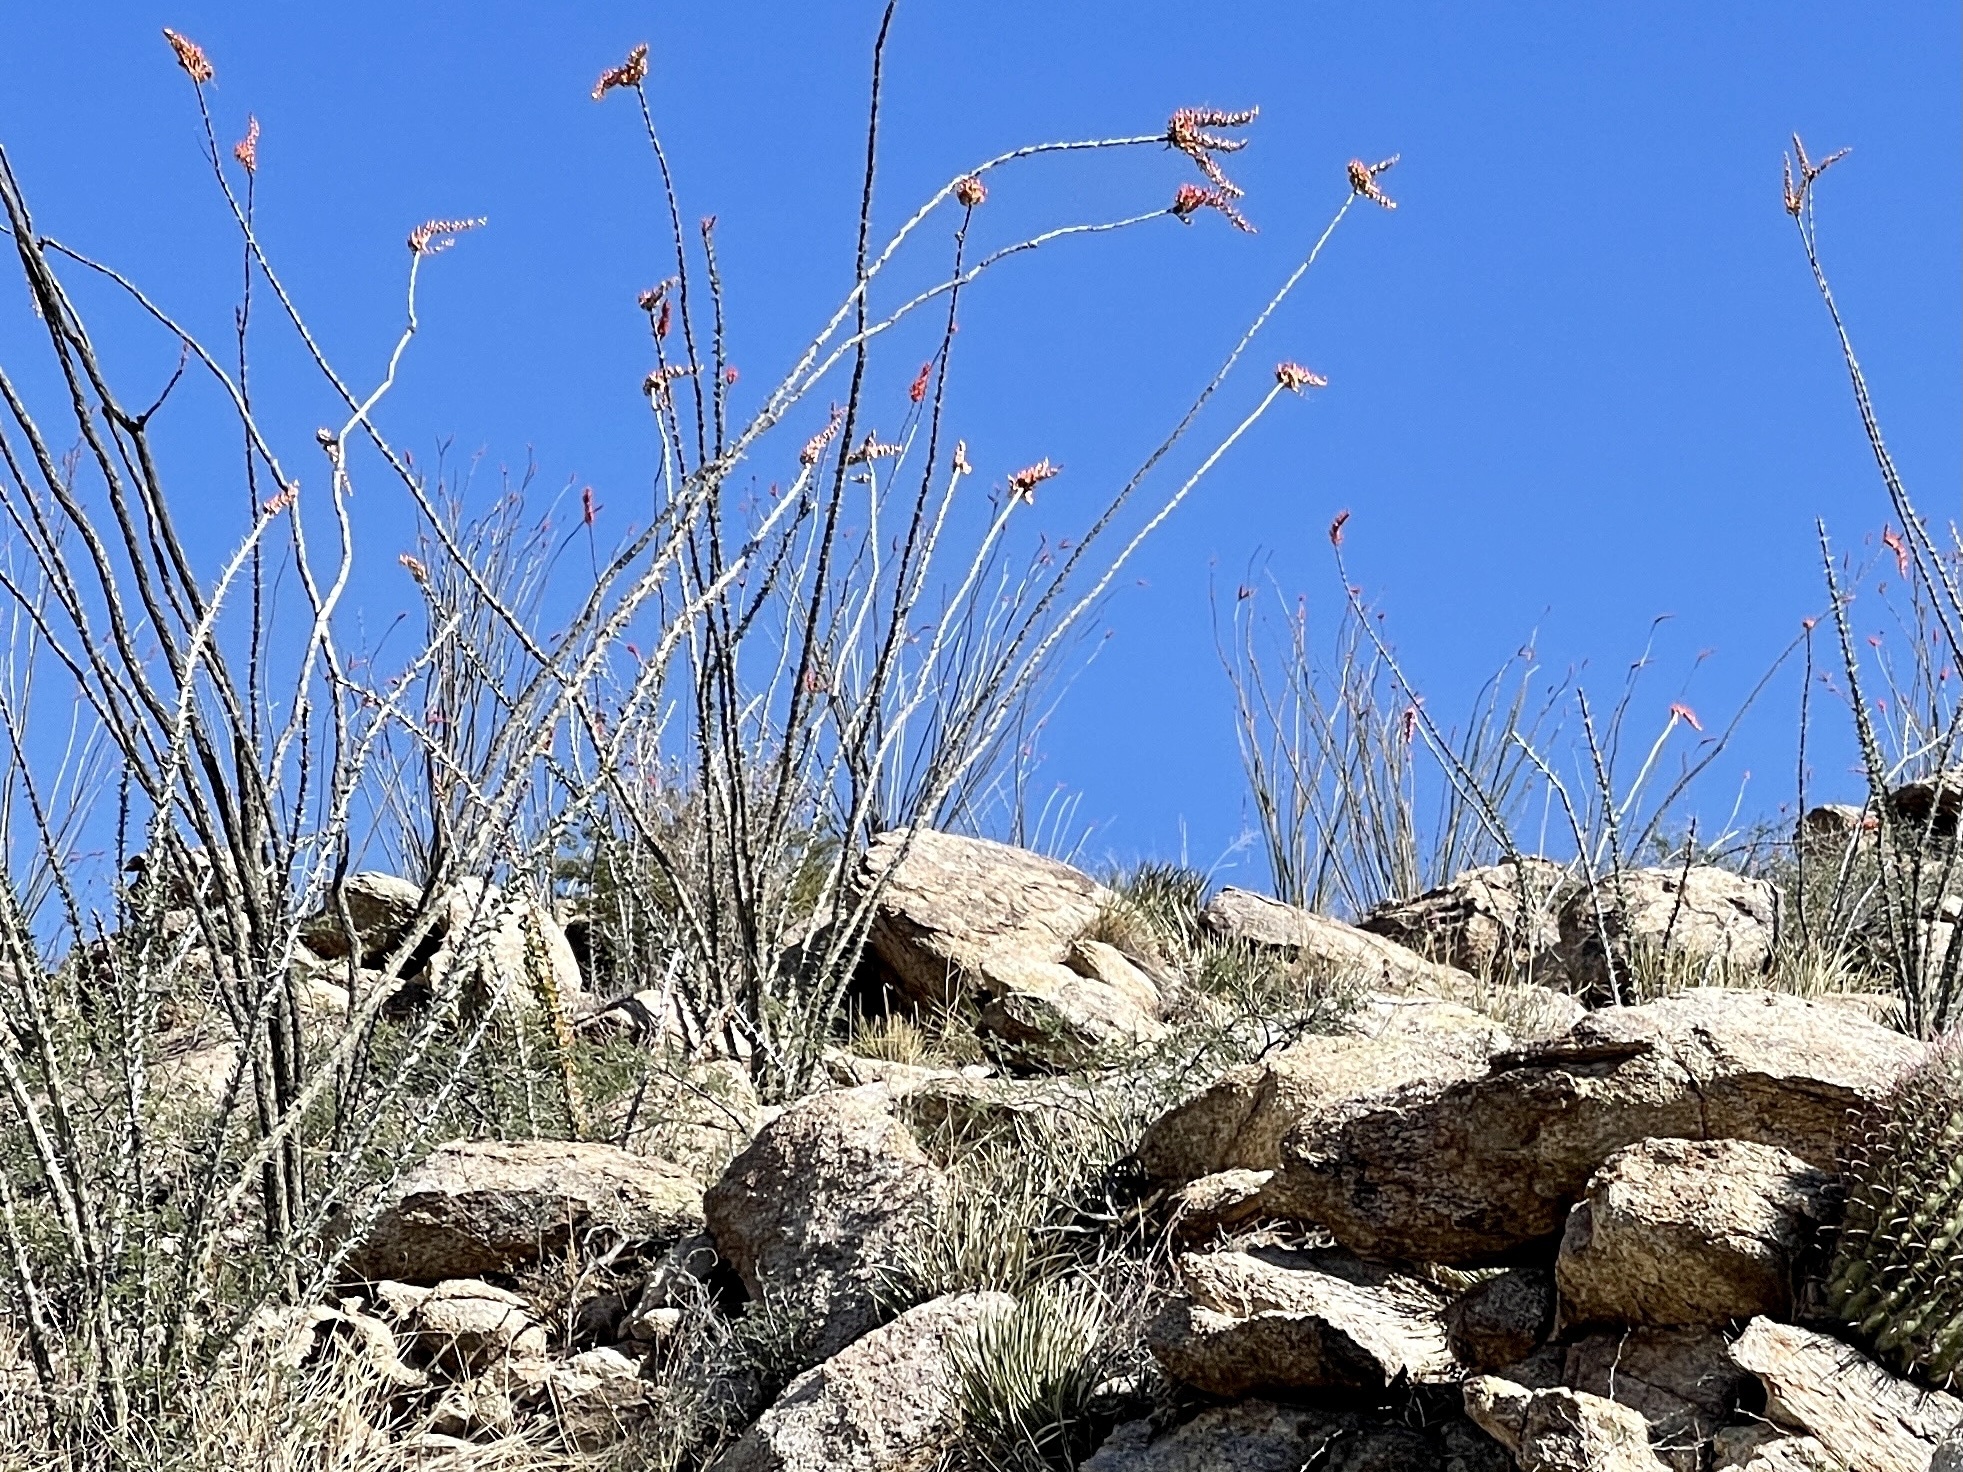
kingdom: Plantae
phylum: Tracheophyta
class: Magnoliopsida
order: Ericales
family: Fouquieriaceae
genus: Fouquieria
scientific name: Fouquieria splendens
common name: Vine-cactus
